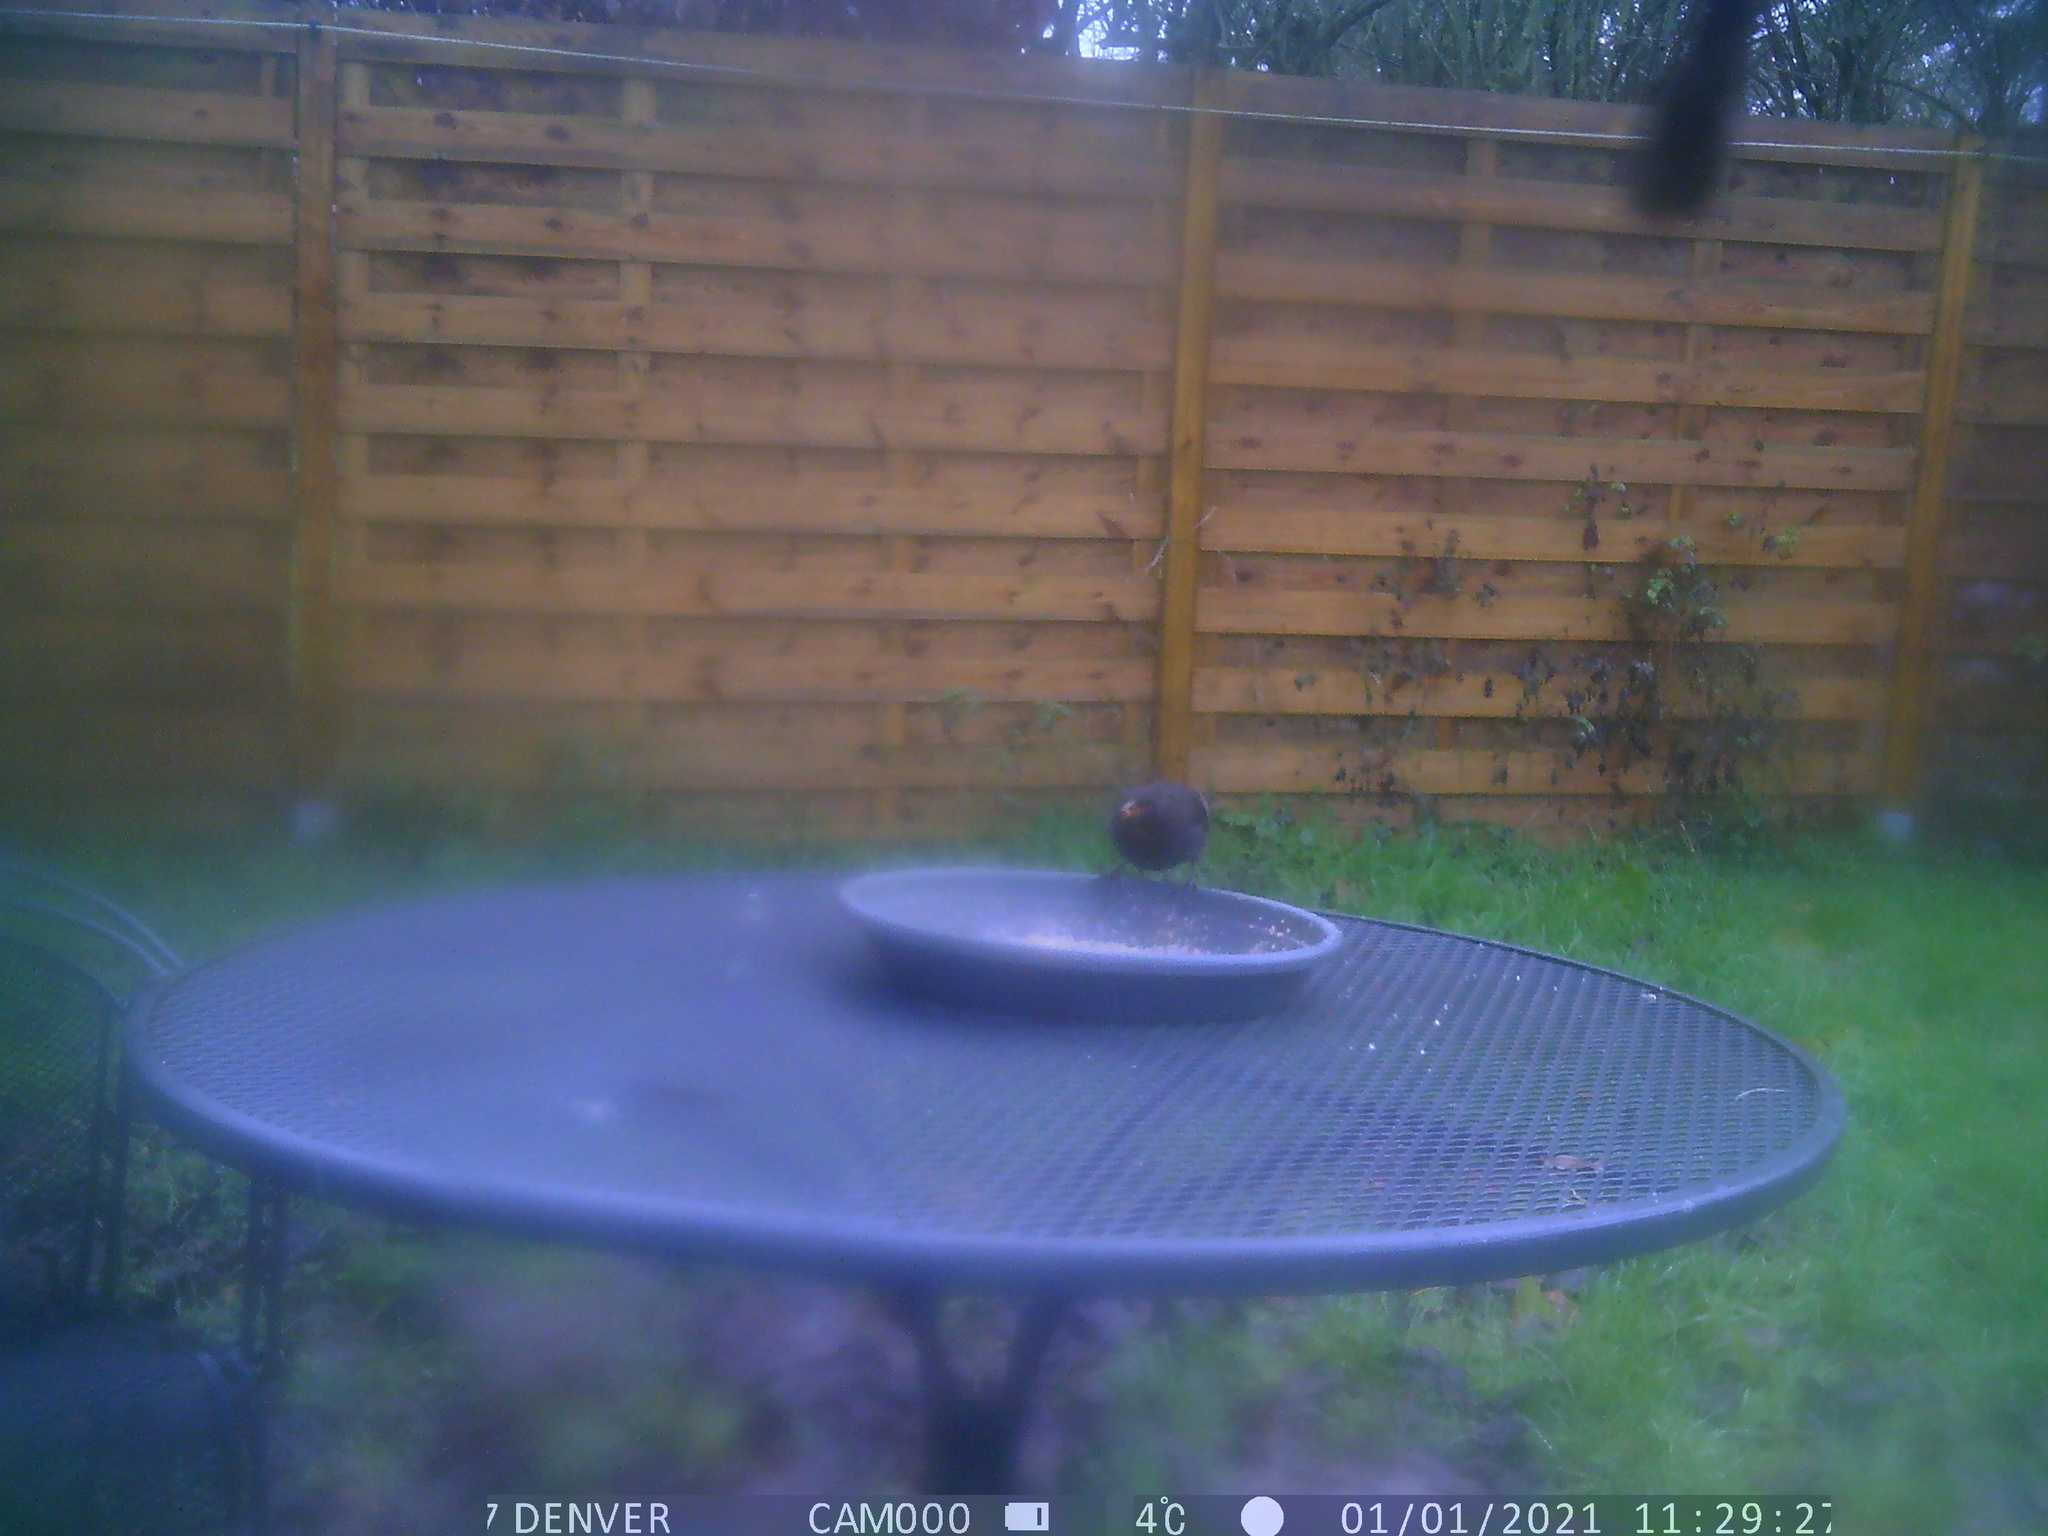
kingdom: Animalia
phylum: Chordata
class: Aves
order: Passeriformes
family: Turdidae
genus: Turdus
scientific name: Turdus merula
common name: Common blackbird
